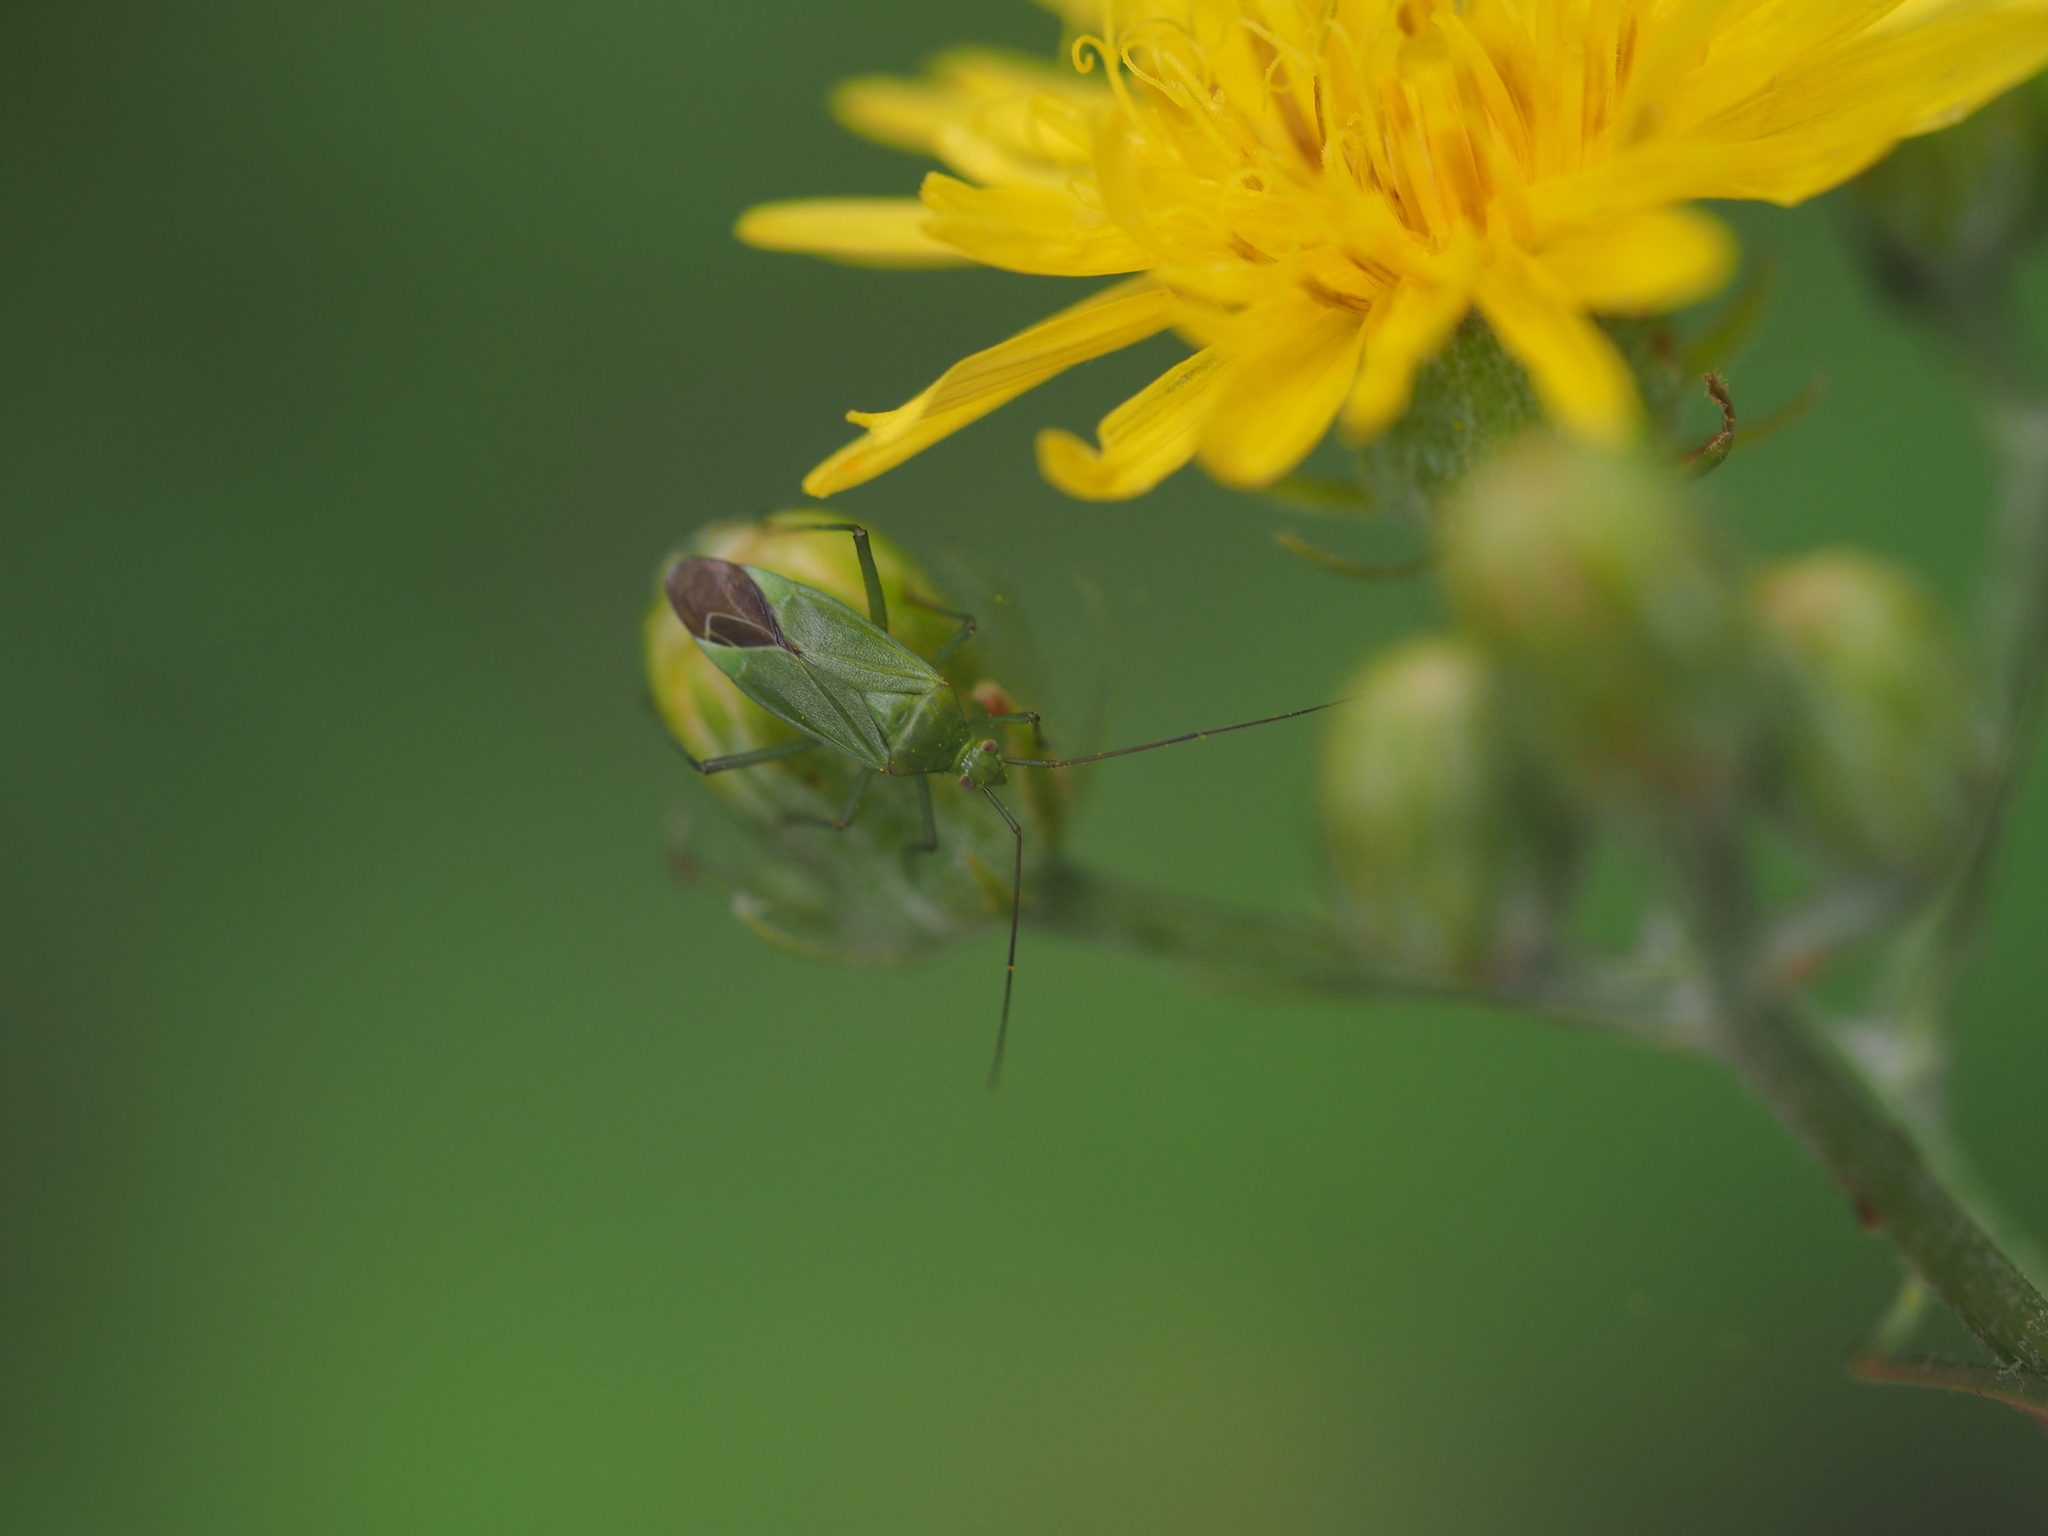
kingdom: Animalia
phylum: Arthropoda
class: Insecta
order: Hemiptera
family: Miridae
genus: Calocoris
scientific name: Calocoris affinis
